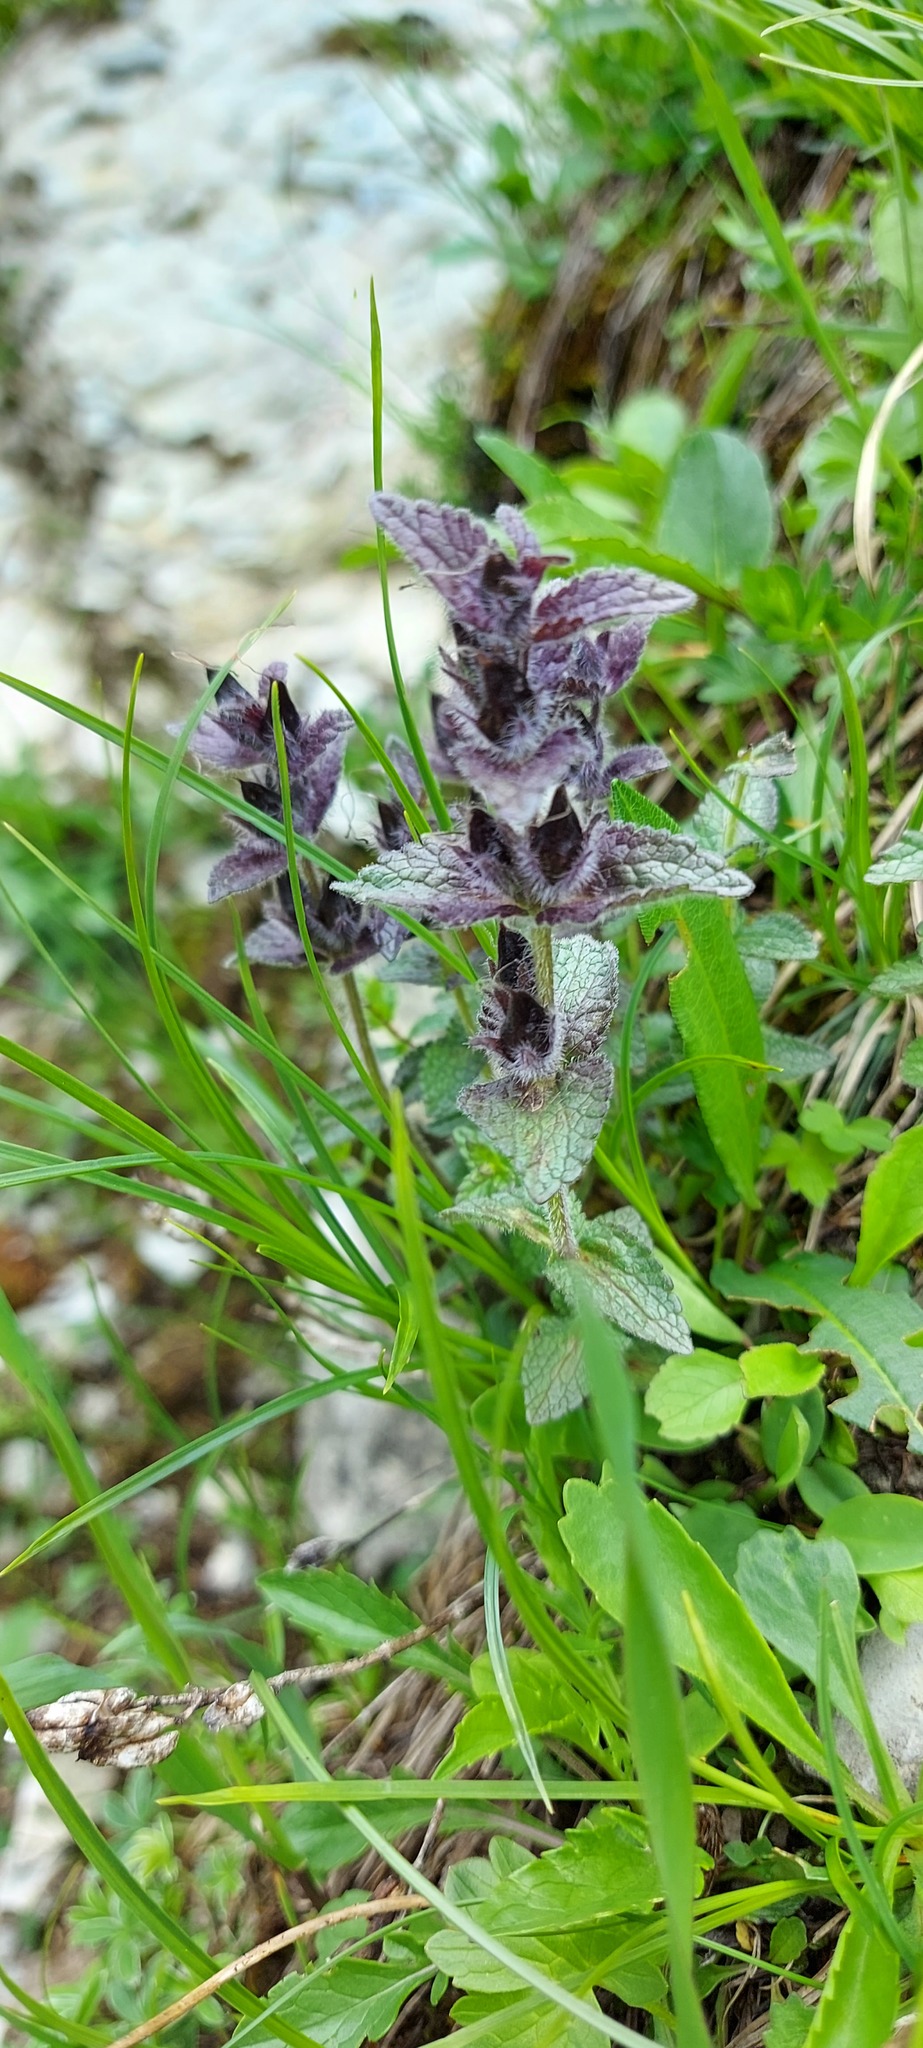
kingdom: Plantae
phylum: Tracheophyta
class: Magnoliopsida
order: Lamiales
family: Orobanchaceae
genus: Bartsia
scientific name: Bartsia alpina
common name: Alpine bartsia
